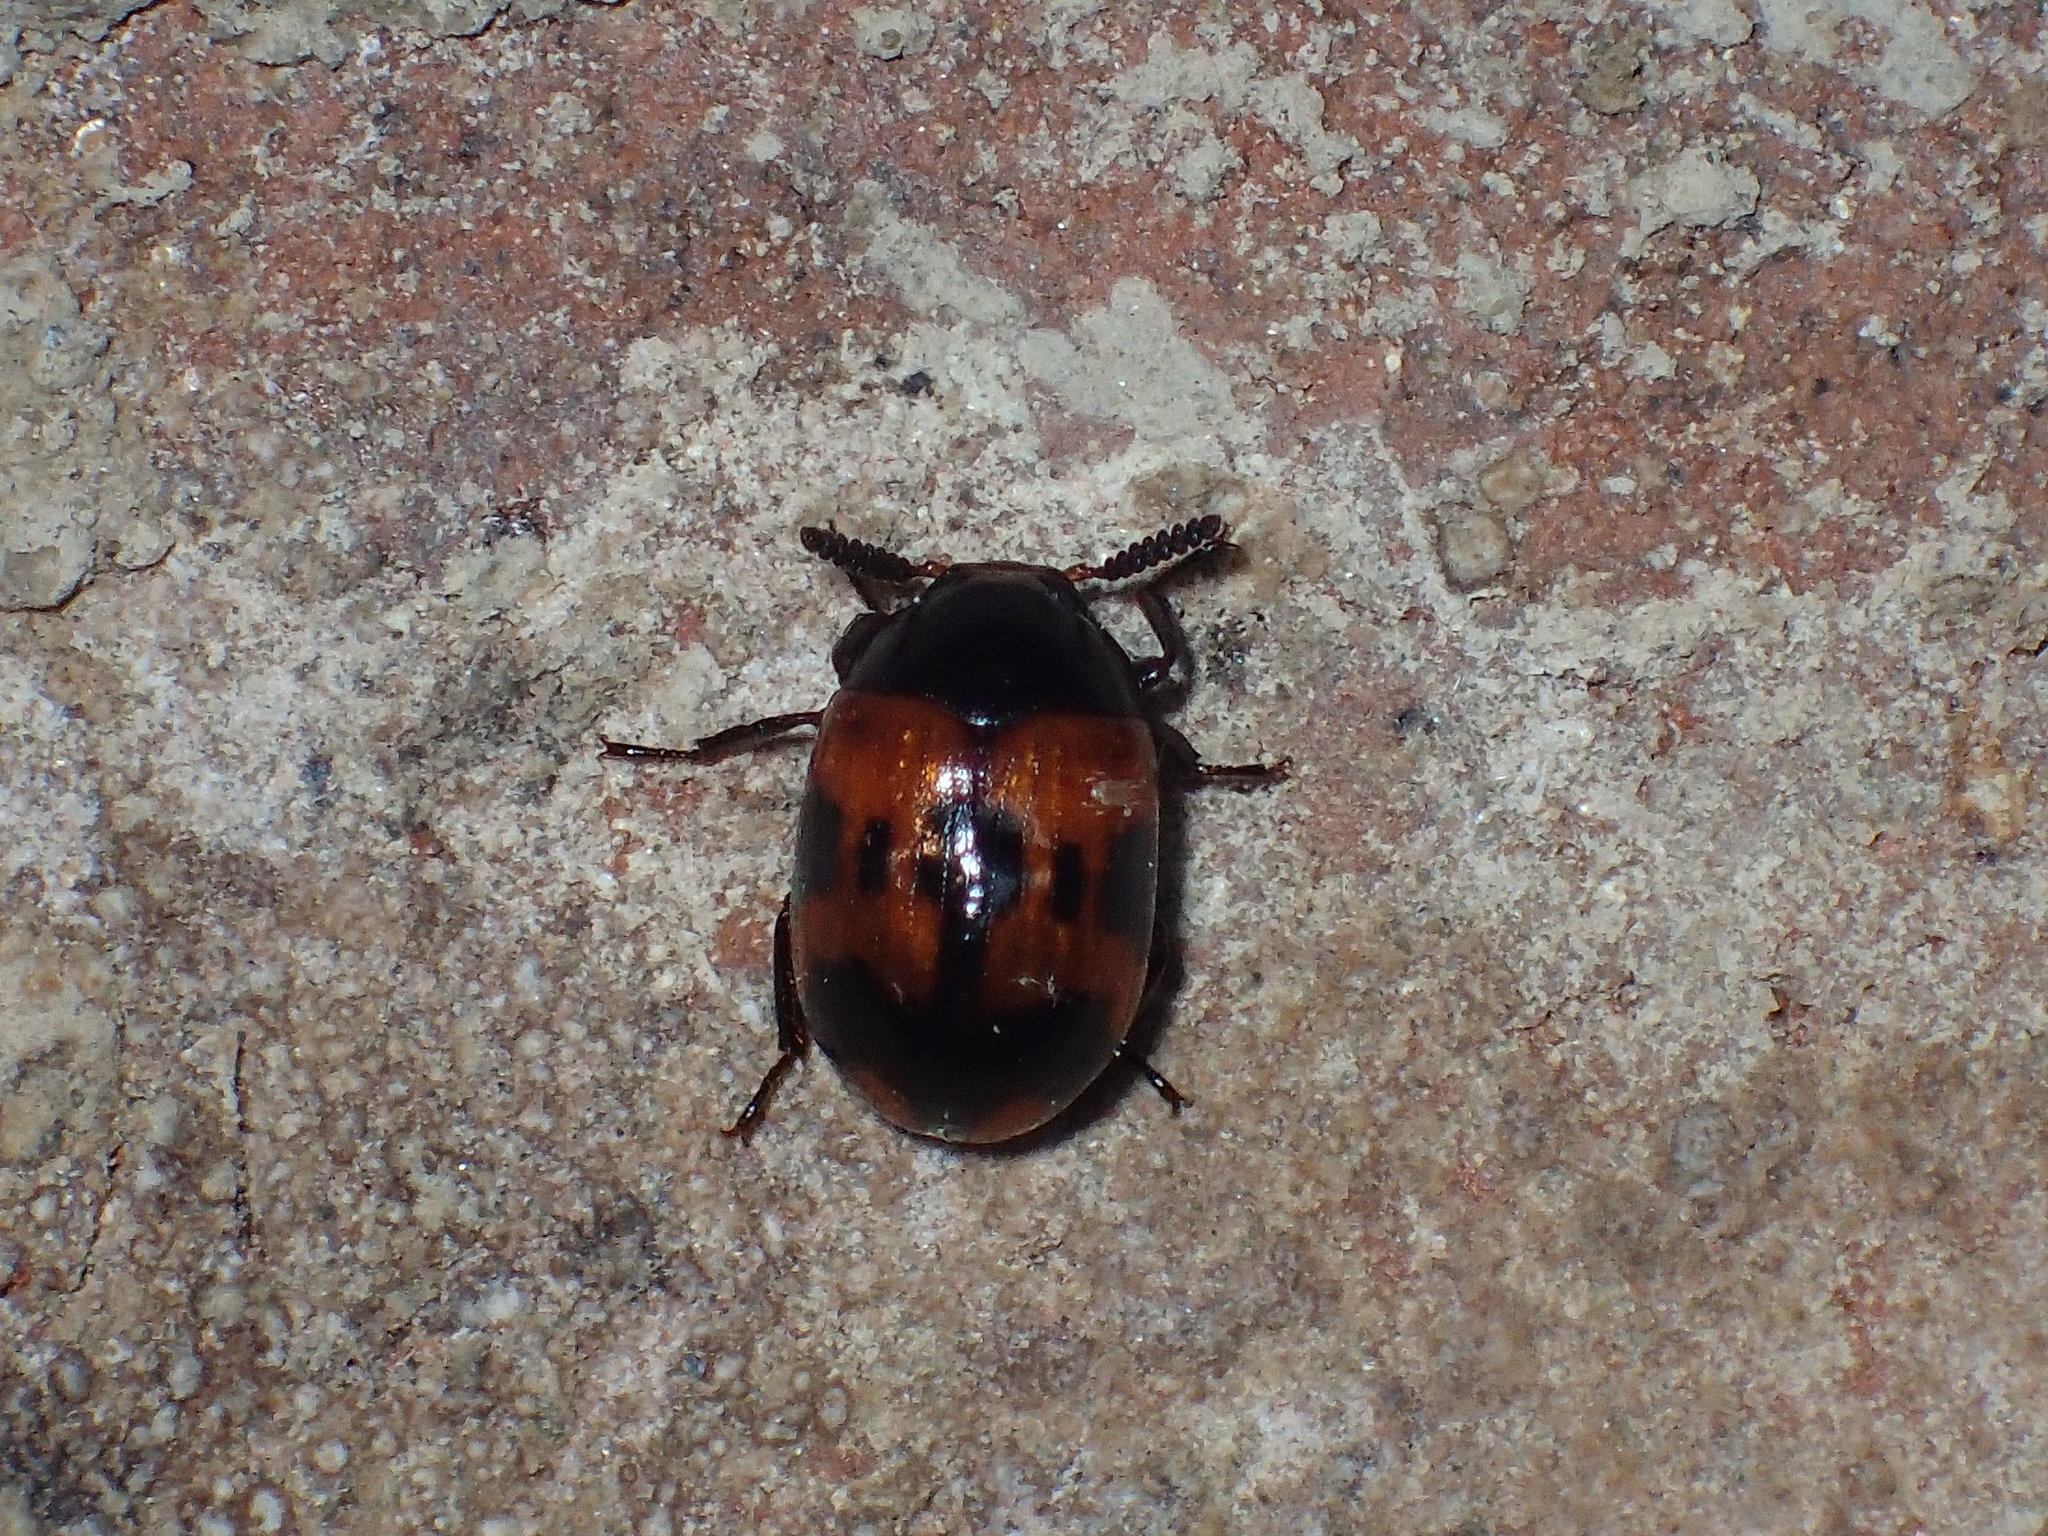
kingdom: Animalia
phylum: Arthropoda
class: Insecta
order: Coleoptera
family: Tenebrionidae
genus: Diaperis
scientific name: Diaperis nigronotata
